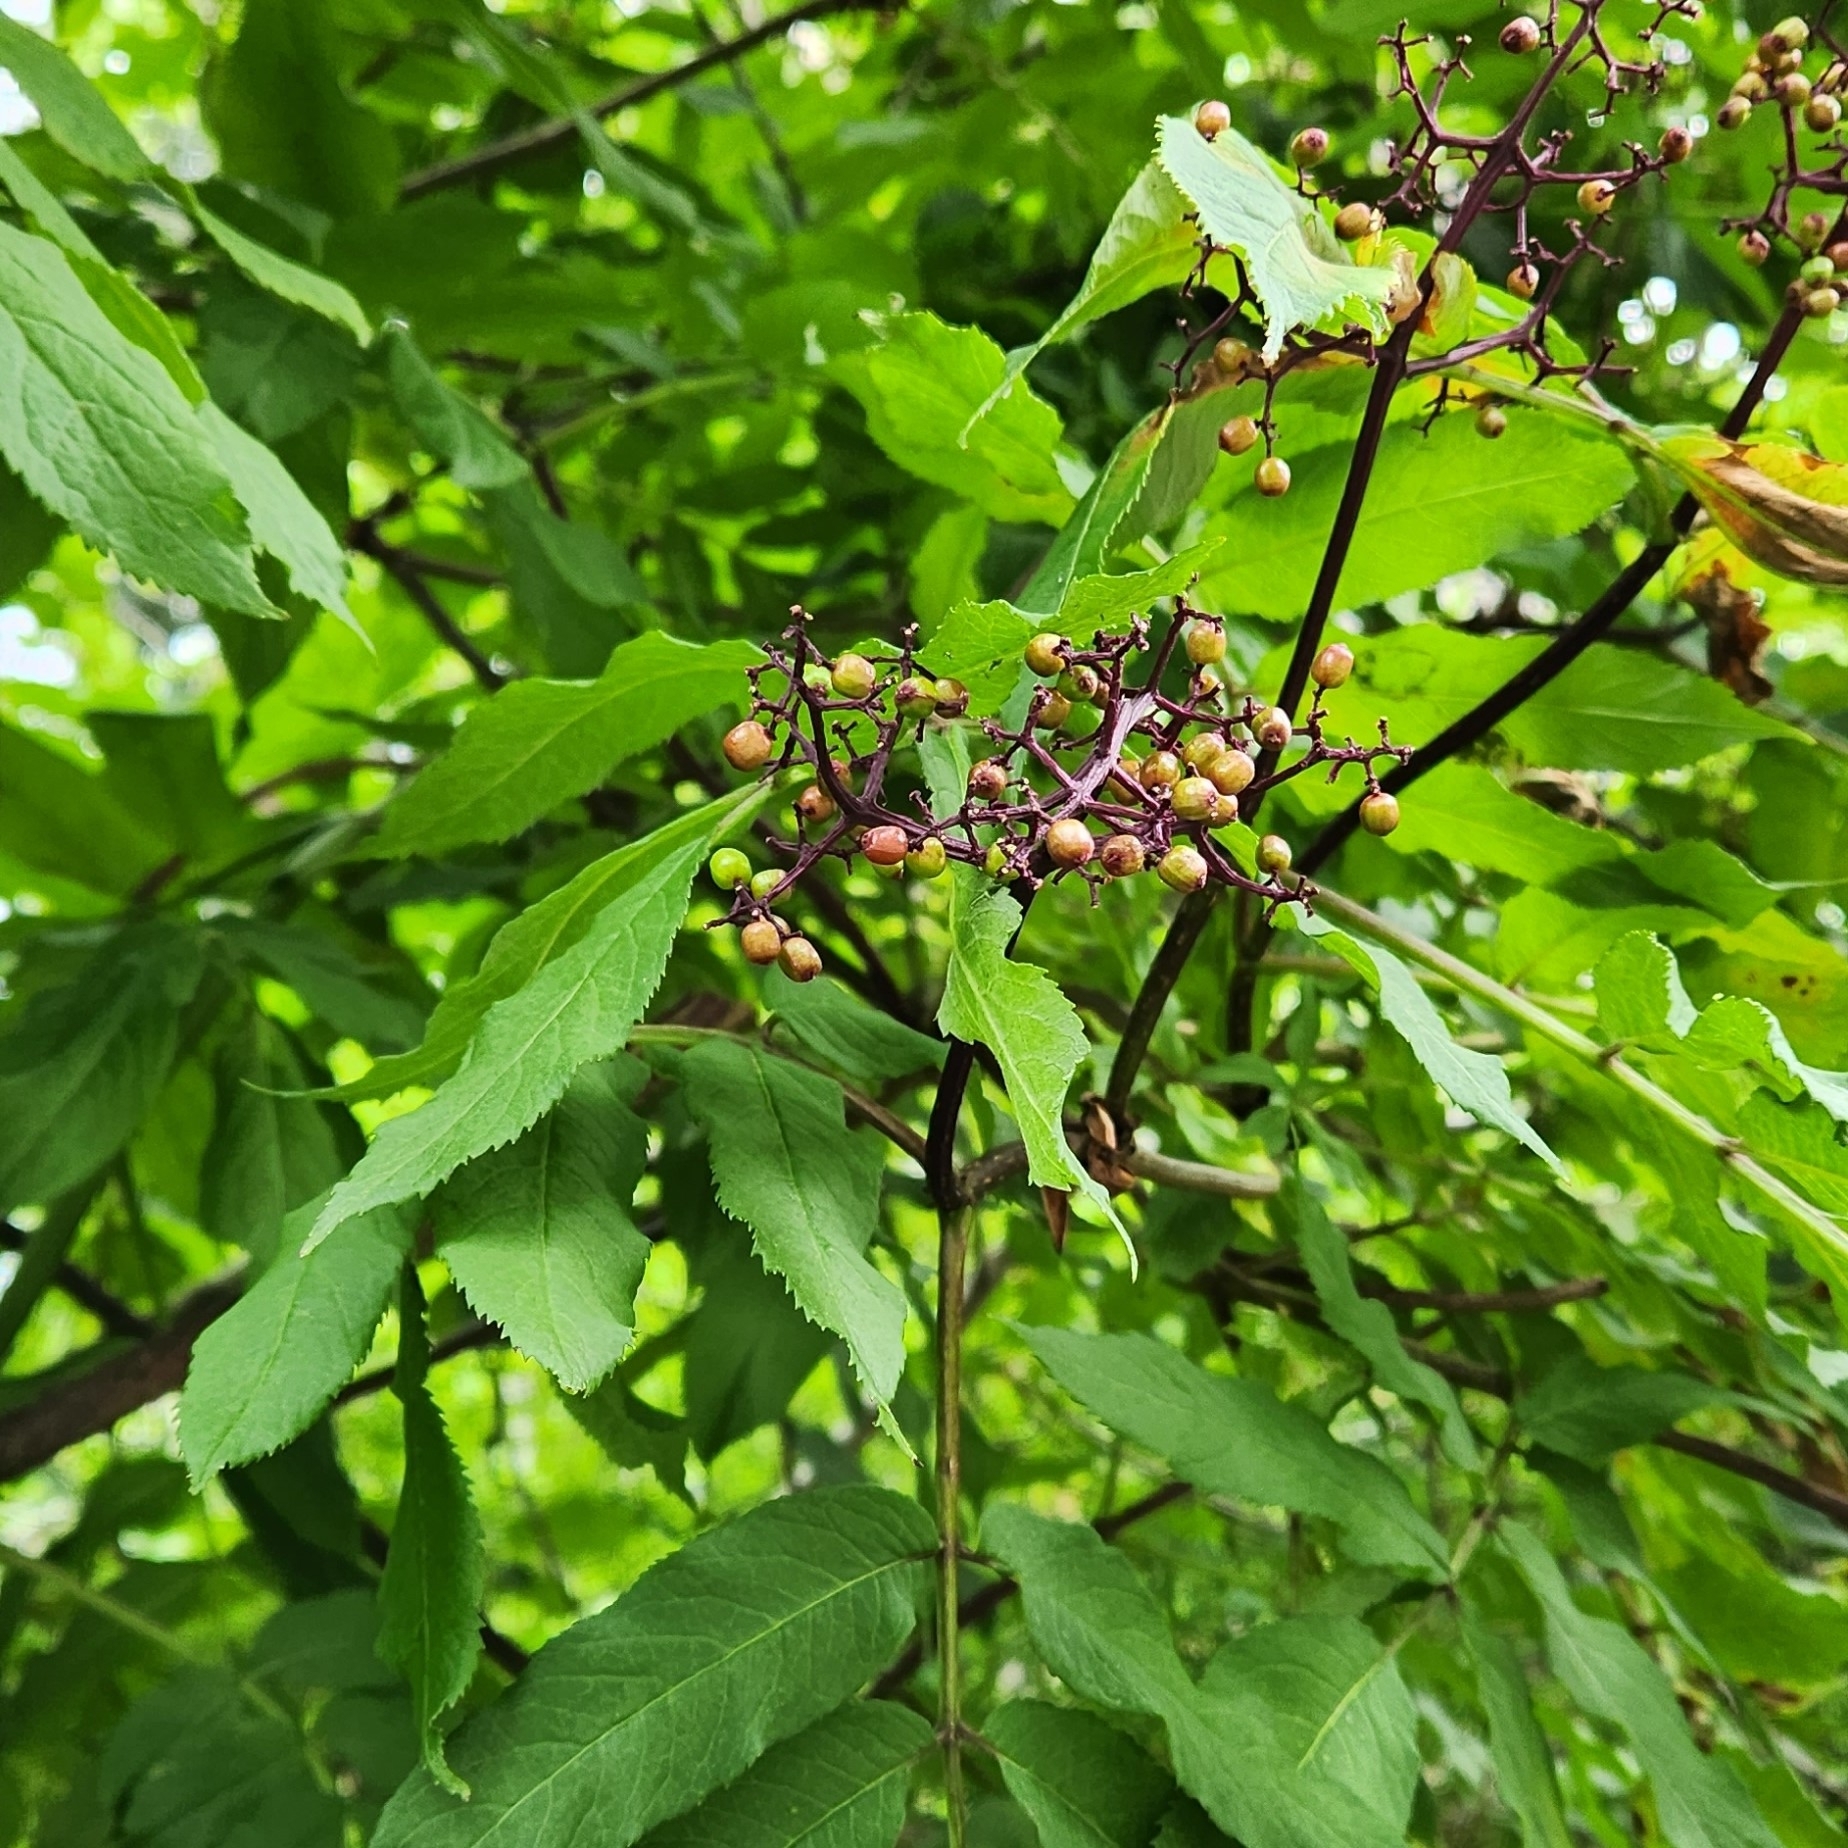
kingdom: Plantae
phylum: Tracheophyta
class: Magnoliopsida
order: Dipsacales
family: Viburnaceae
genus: Sambucus
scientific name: Sambucus racemosa
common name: Red-berried elder
